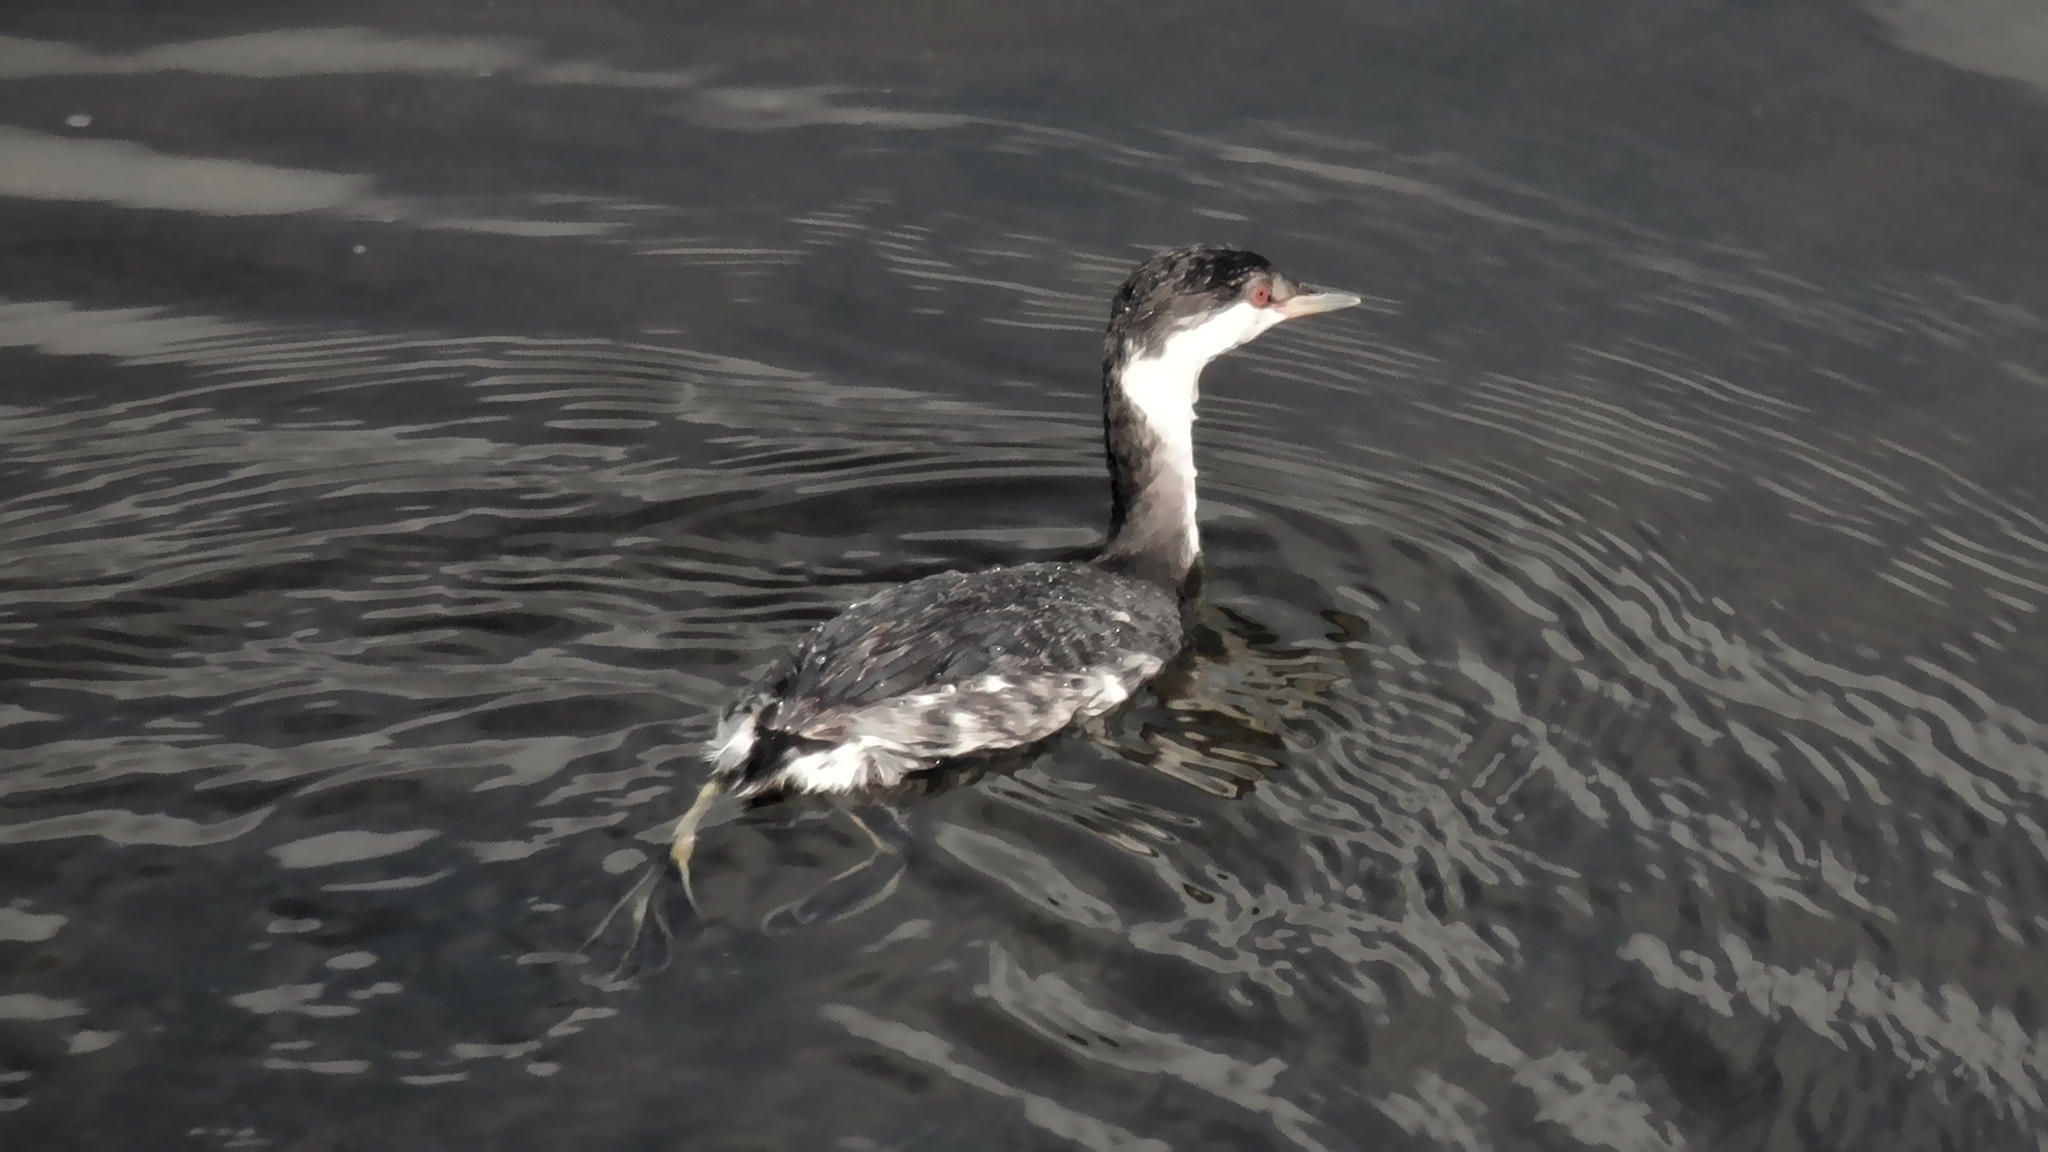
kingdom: Animalia
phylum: Chordata
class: Aves
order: Podicipediformes
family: Podicipedidae
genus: Podiceps
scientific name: Podiceps auritus
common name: Horned grebe
